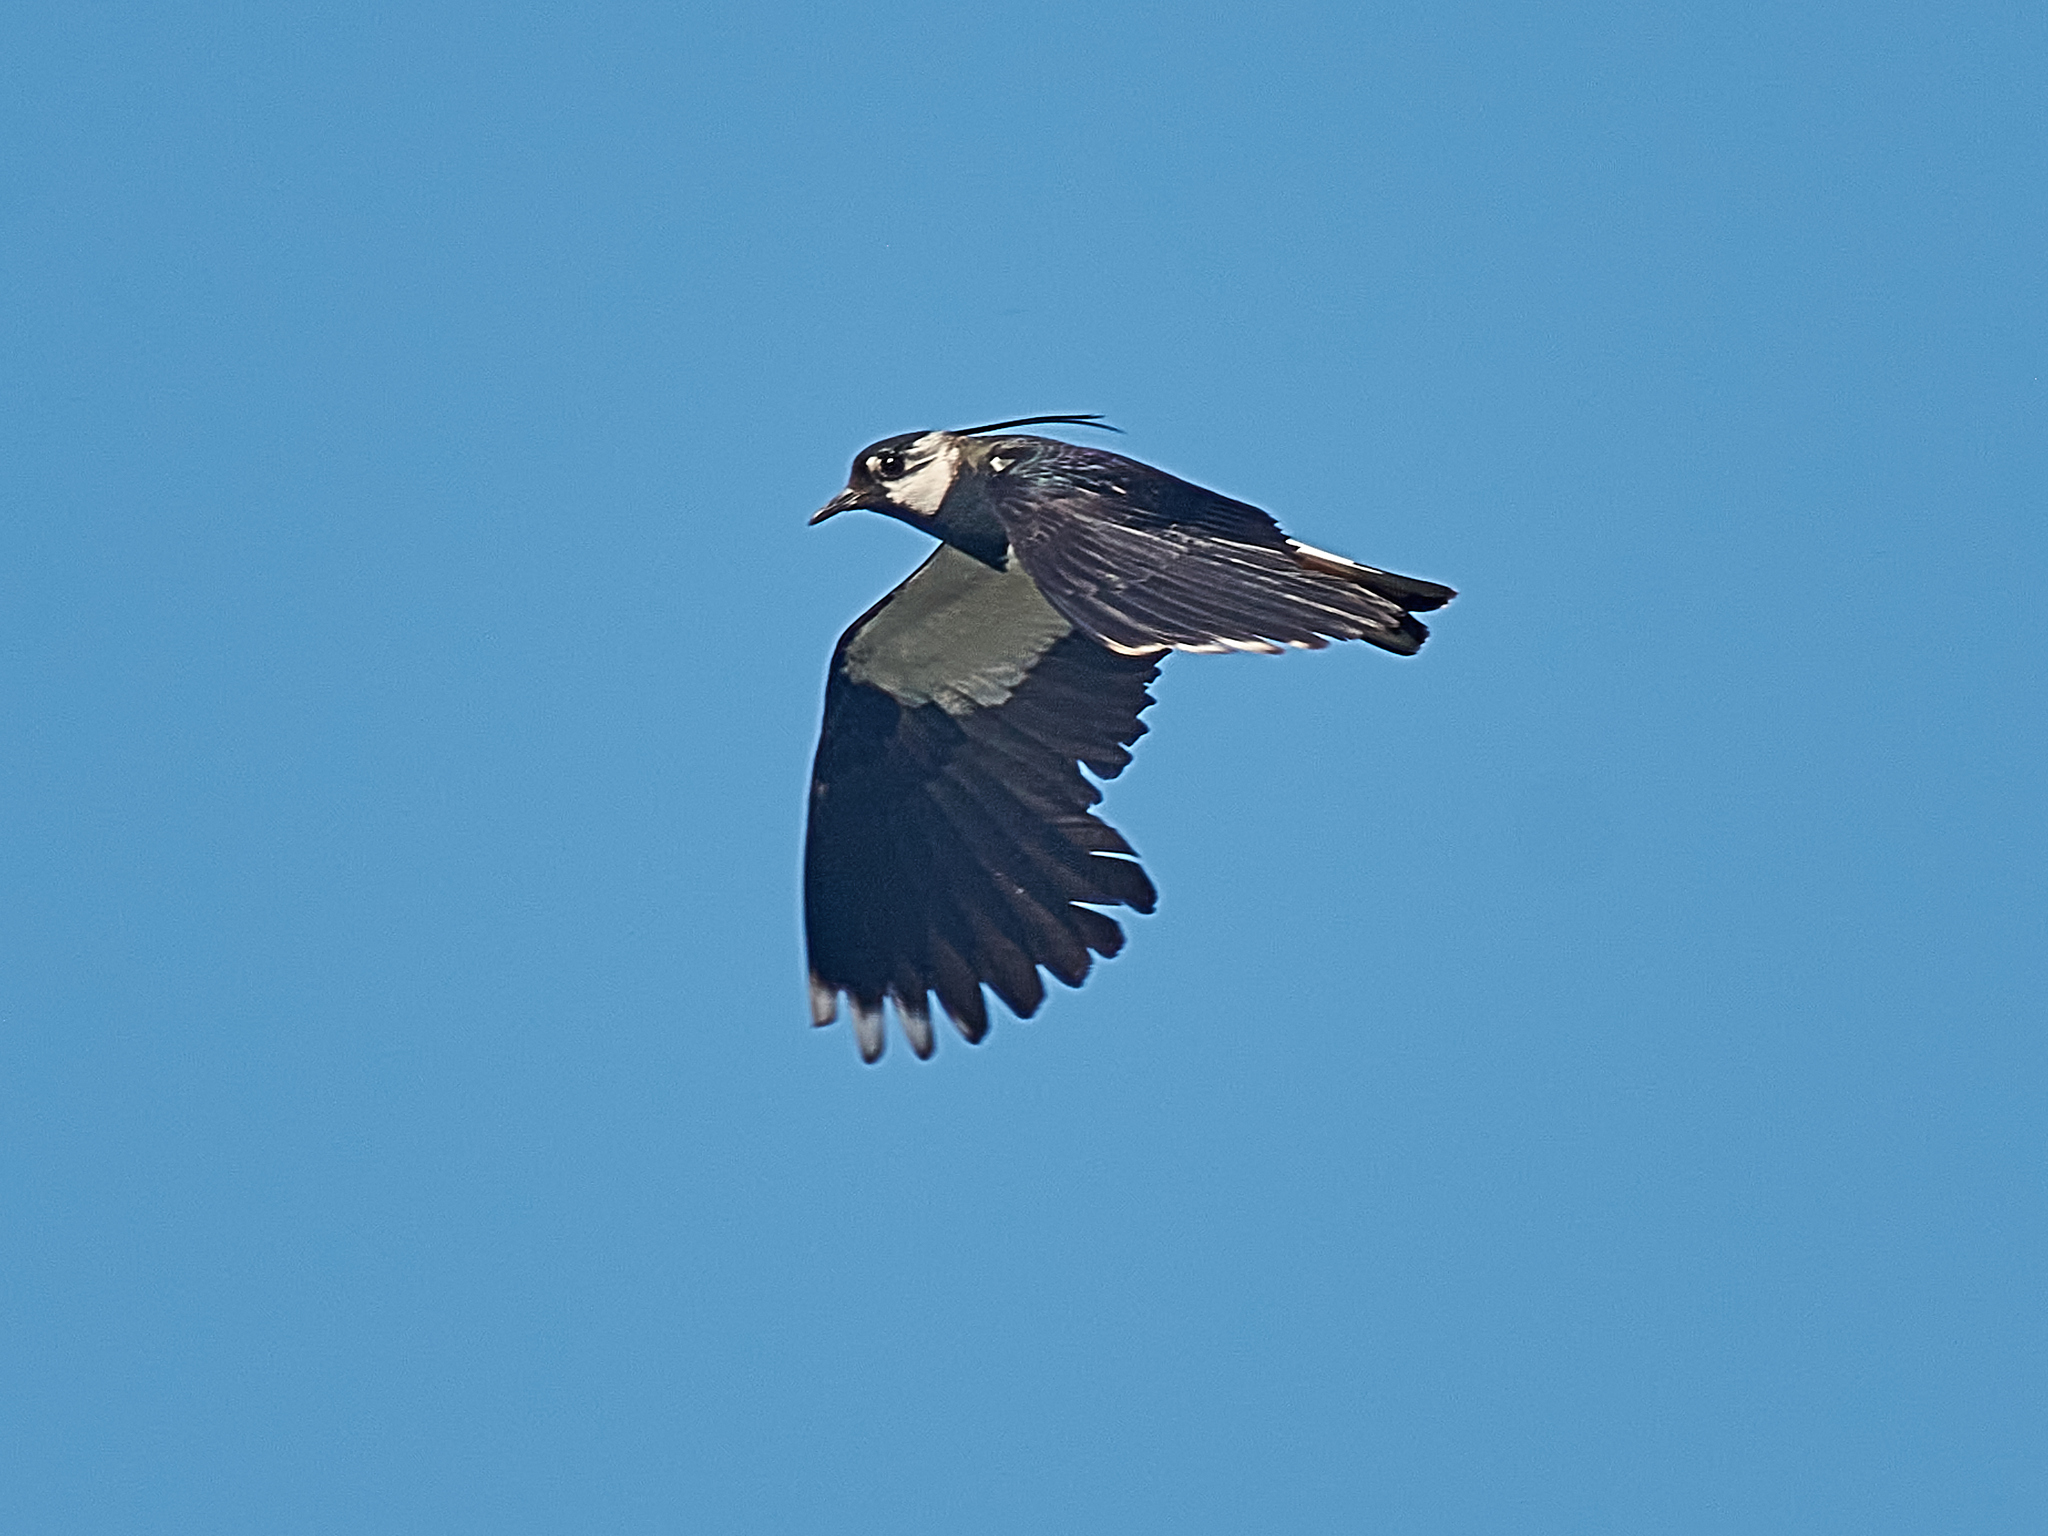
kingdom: Animalia
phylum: Chordata
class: Aves
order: Charadriiformes
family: Charadriidae
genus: Vanellus
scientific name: Vanellus vanellus
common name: Northern lapwing
